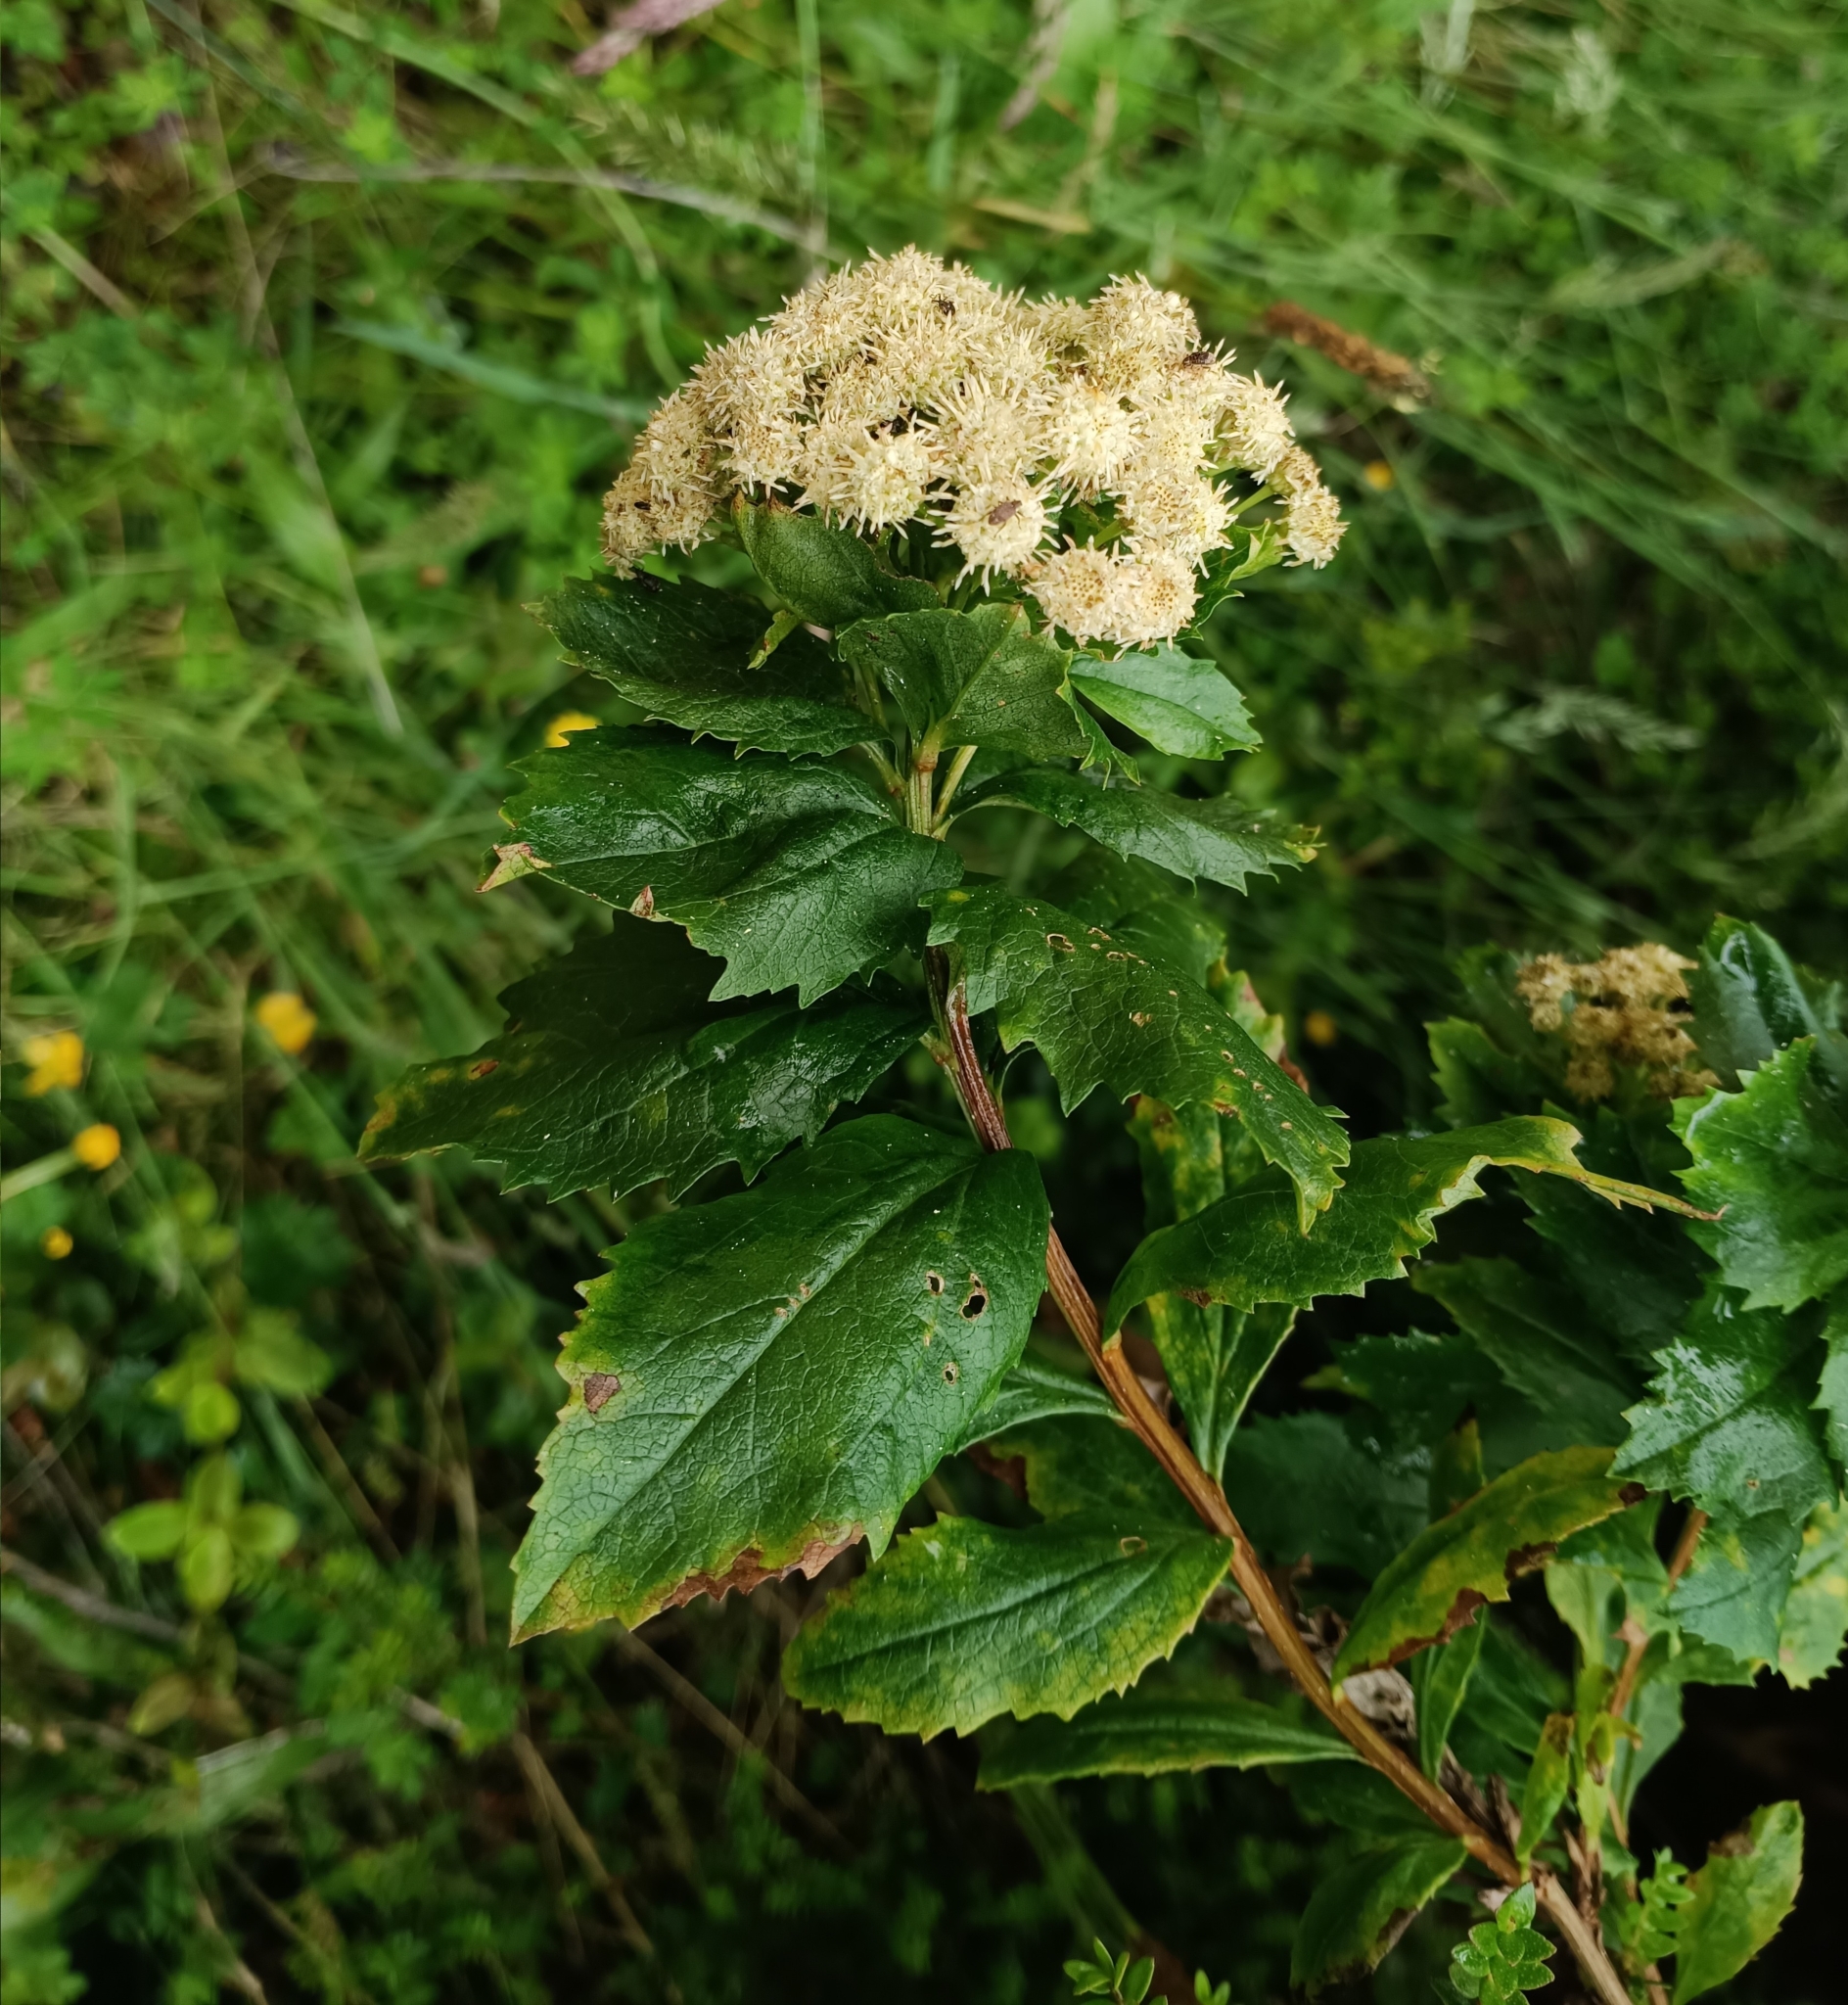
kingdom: Plantae
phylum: Tracheophyta
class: Magnoliopsida
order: Asterales
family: Asteraceae
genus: Baccharis
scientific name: Baccharis sphaerocephala
